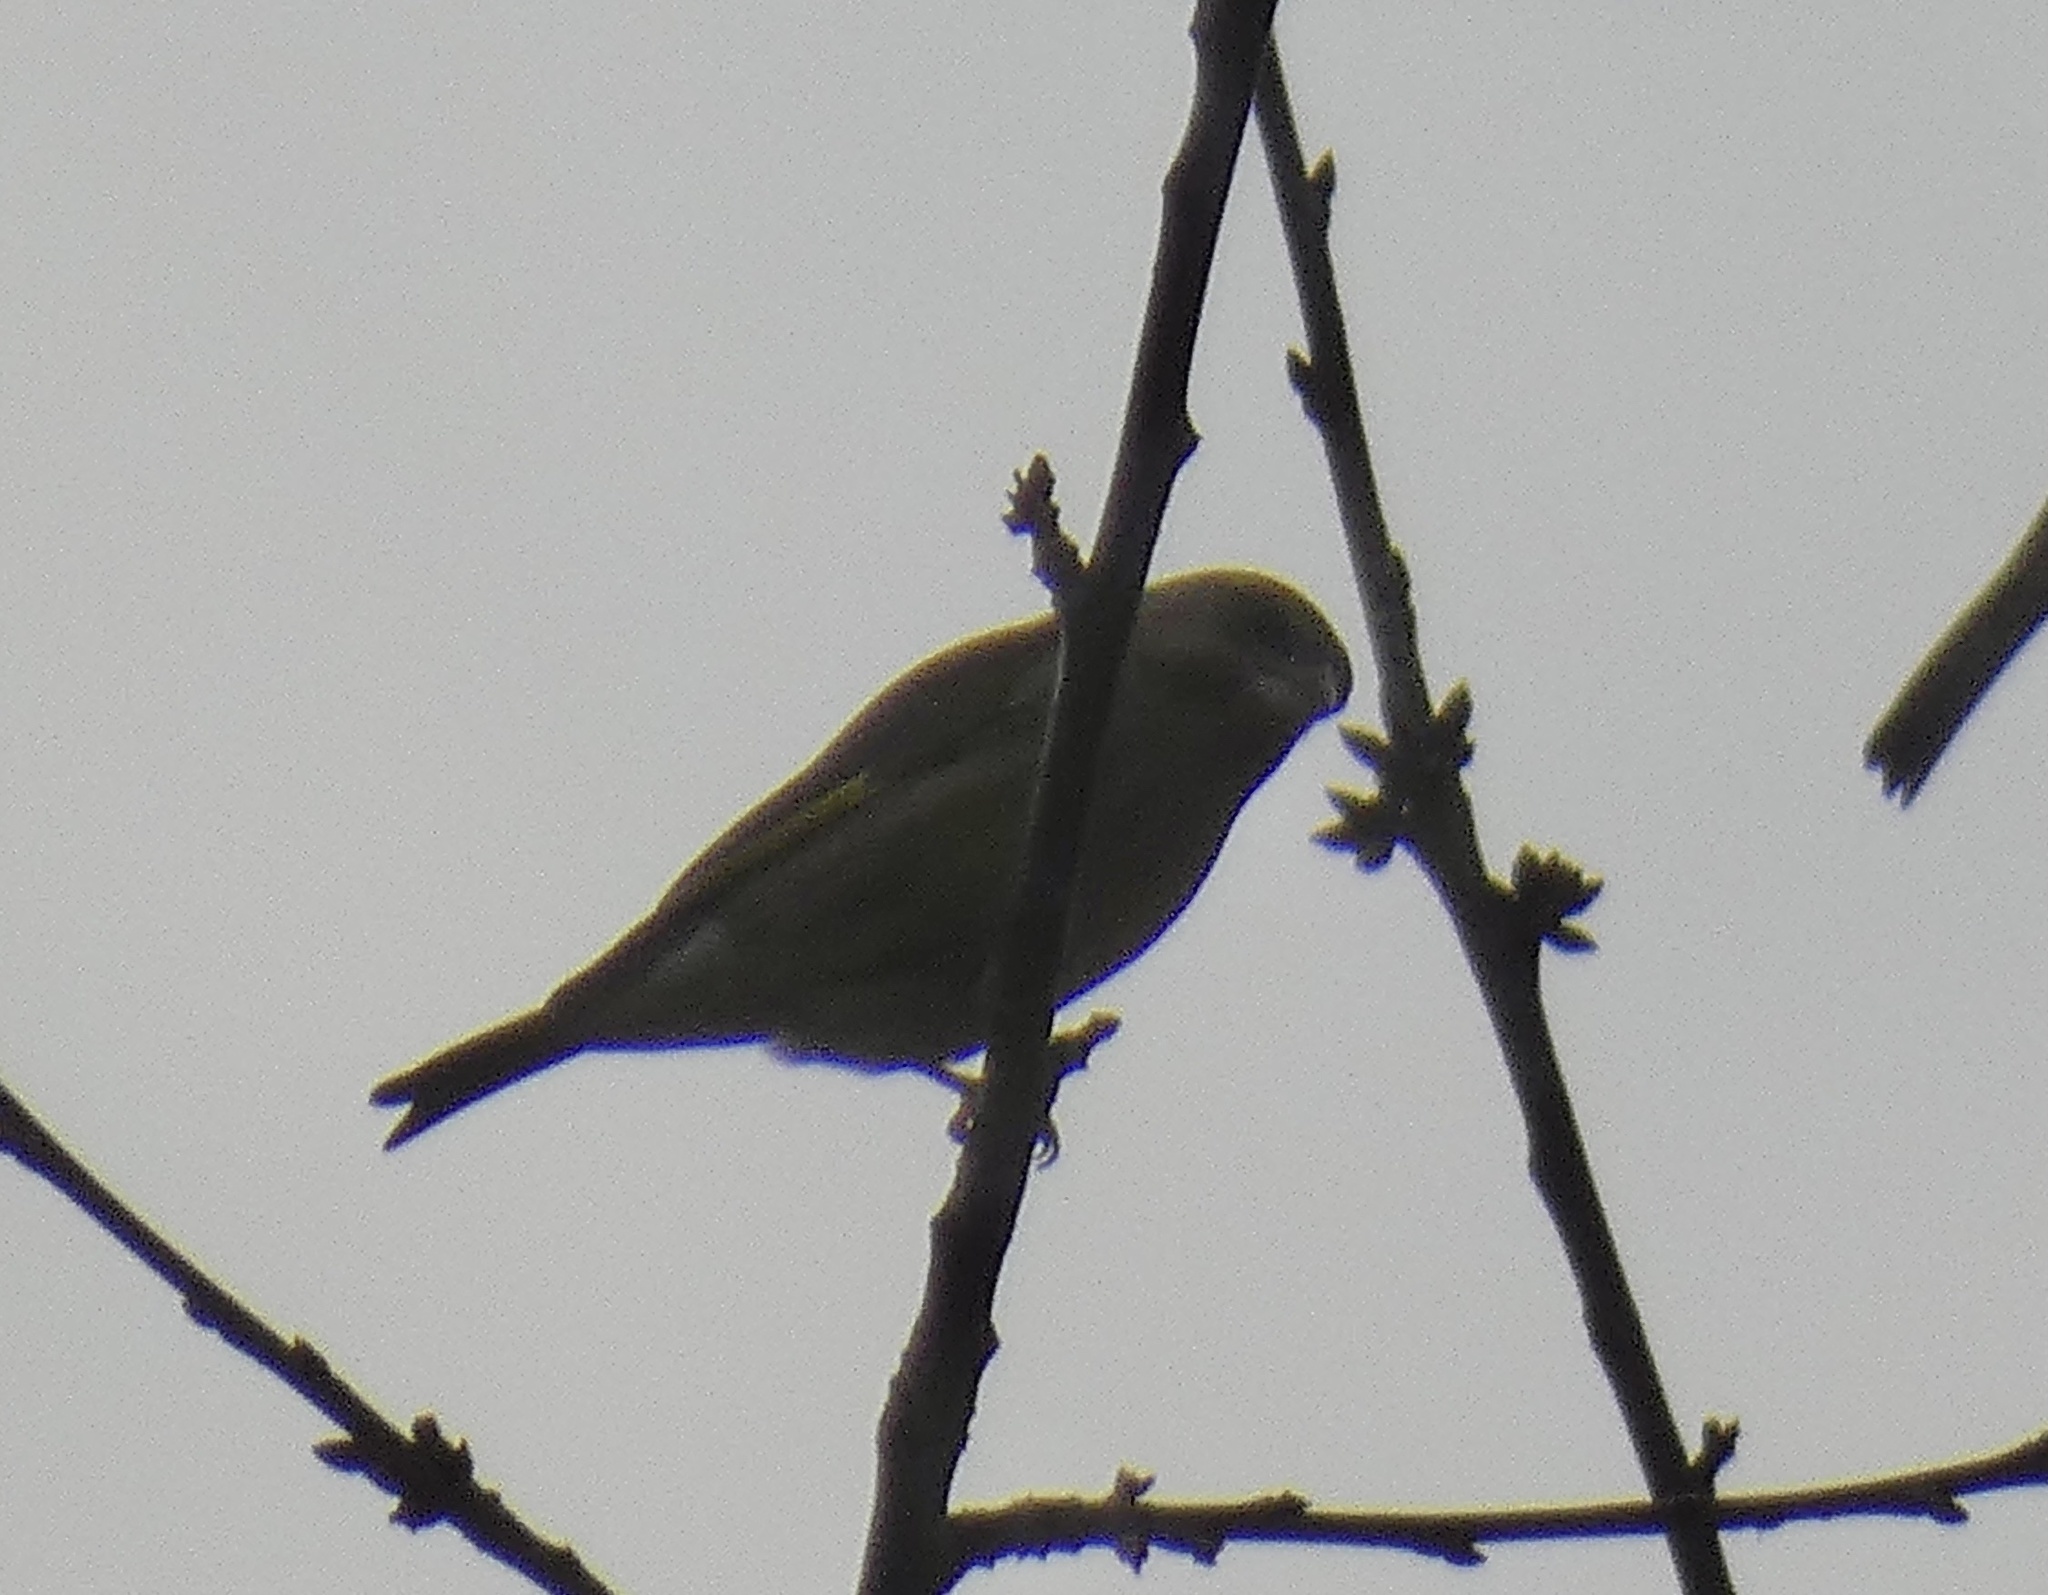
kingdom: Plantae
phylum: Tracheophyta
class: Liliopsida
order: Poales
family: Poaceae
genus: Chloris
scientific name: Chloris chloris
